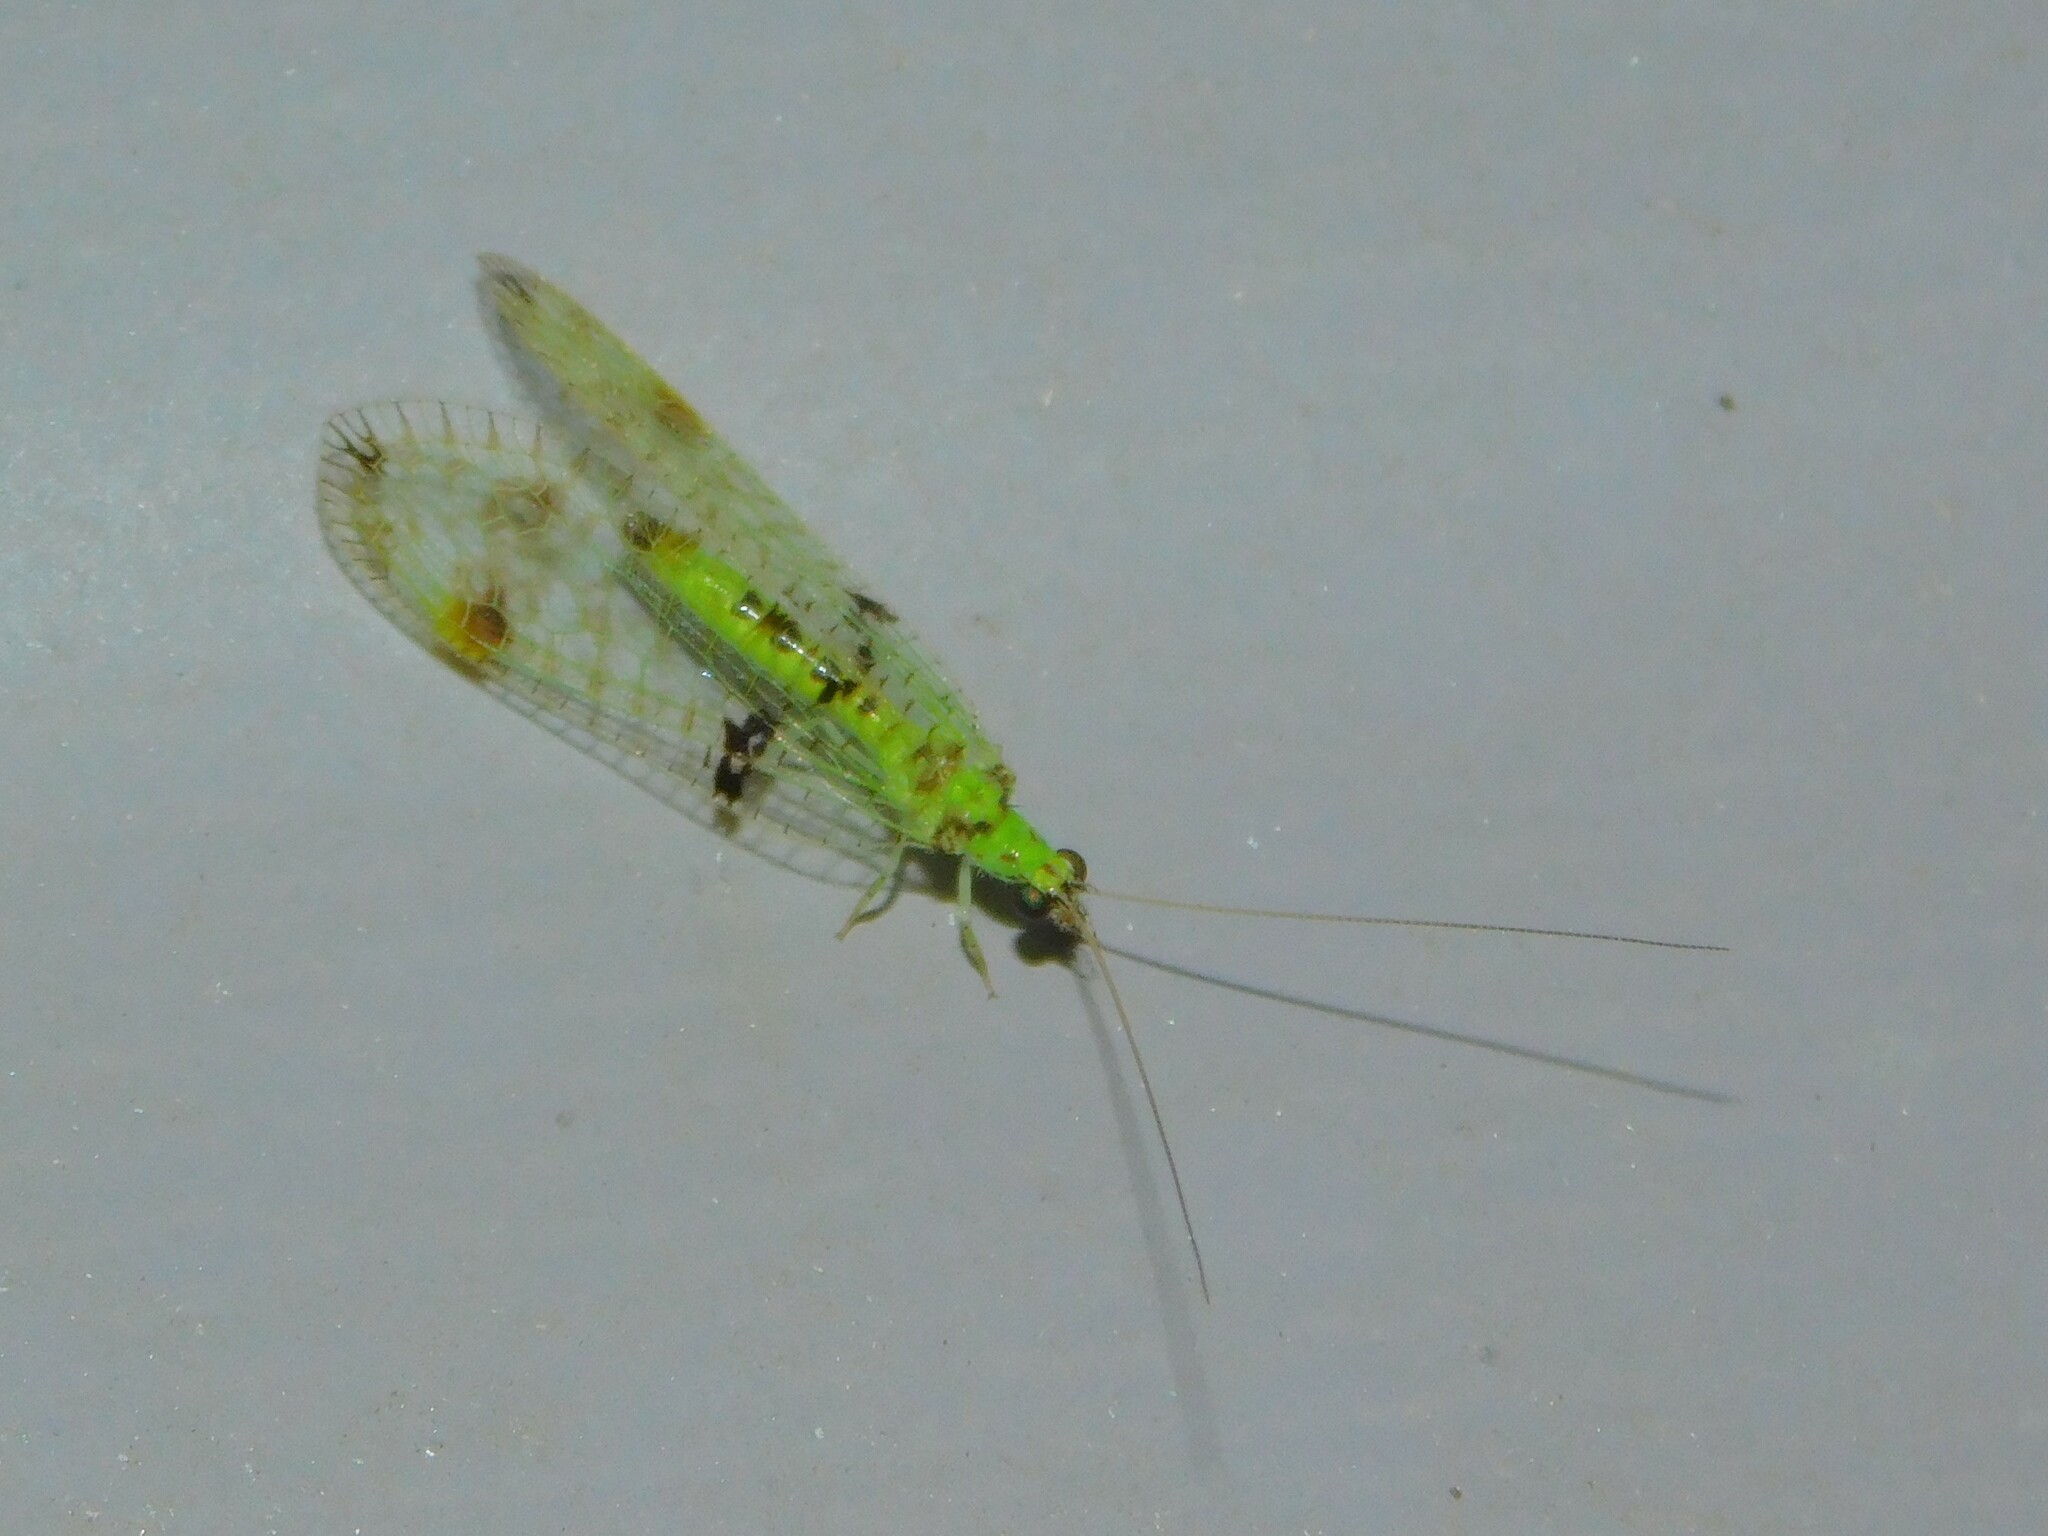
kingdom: Animalia
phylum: Arthropoda
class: Insecta
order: Neuroptera
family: Chrysopidae
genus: Glenochrysa
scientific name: Glenochrysa principissa
